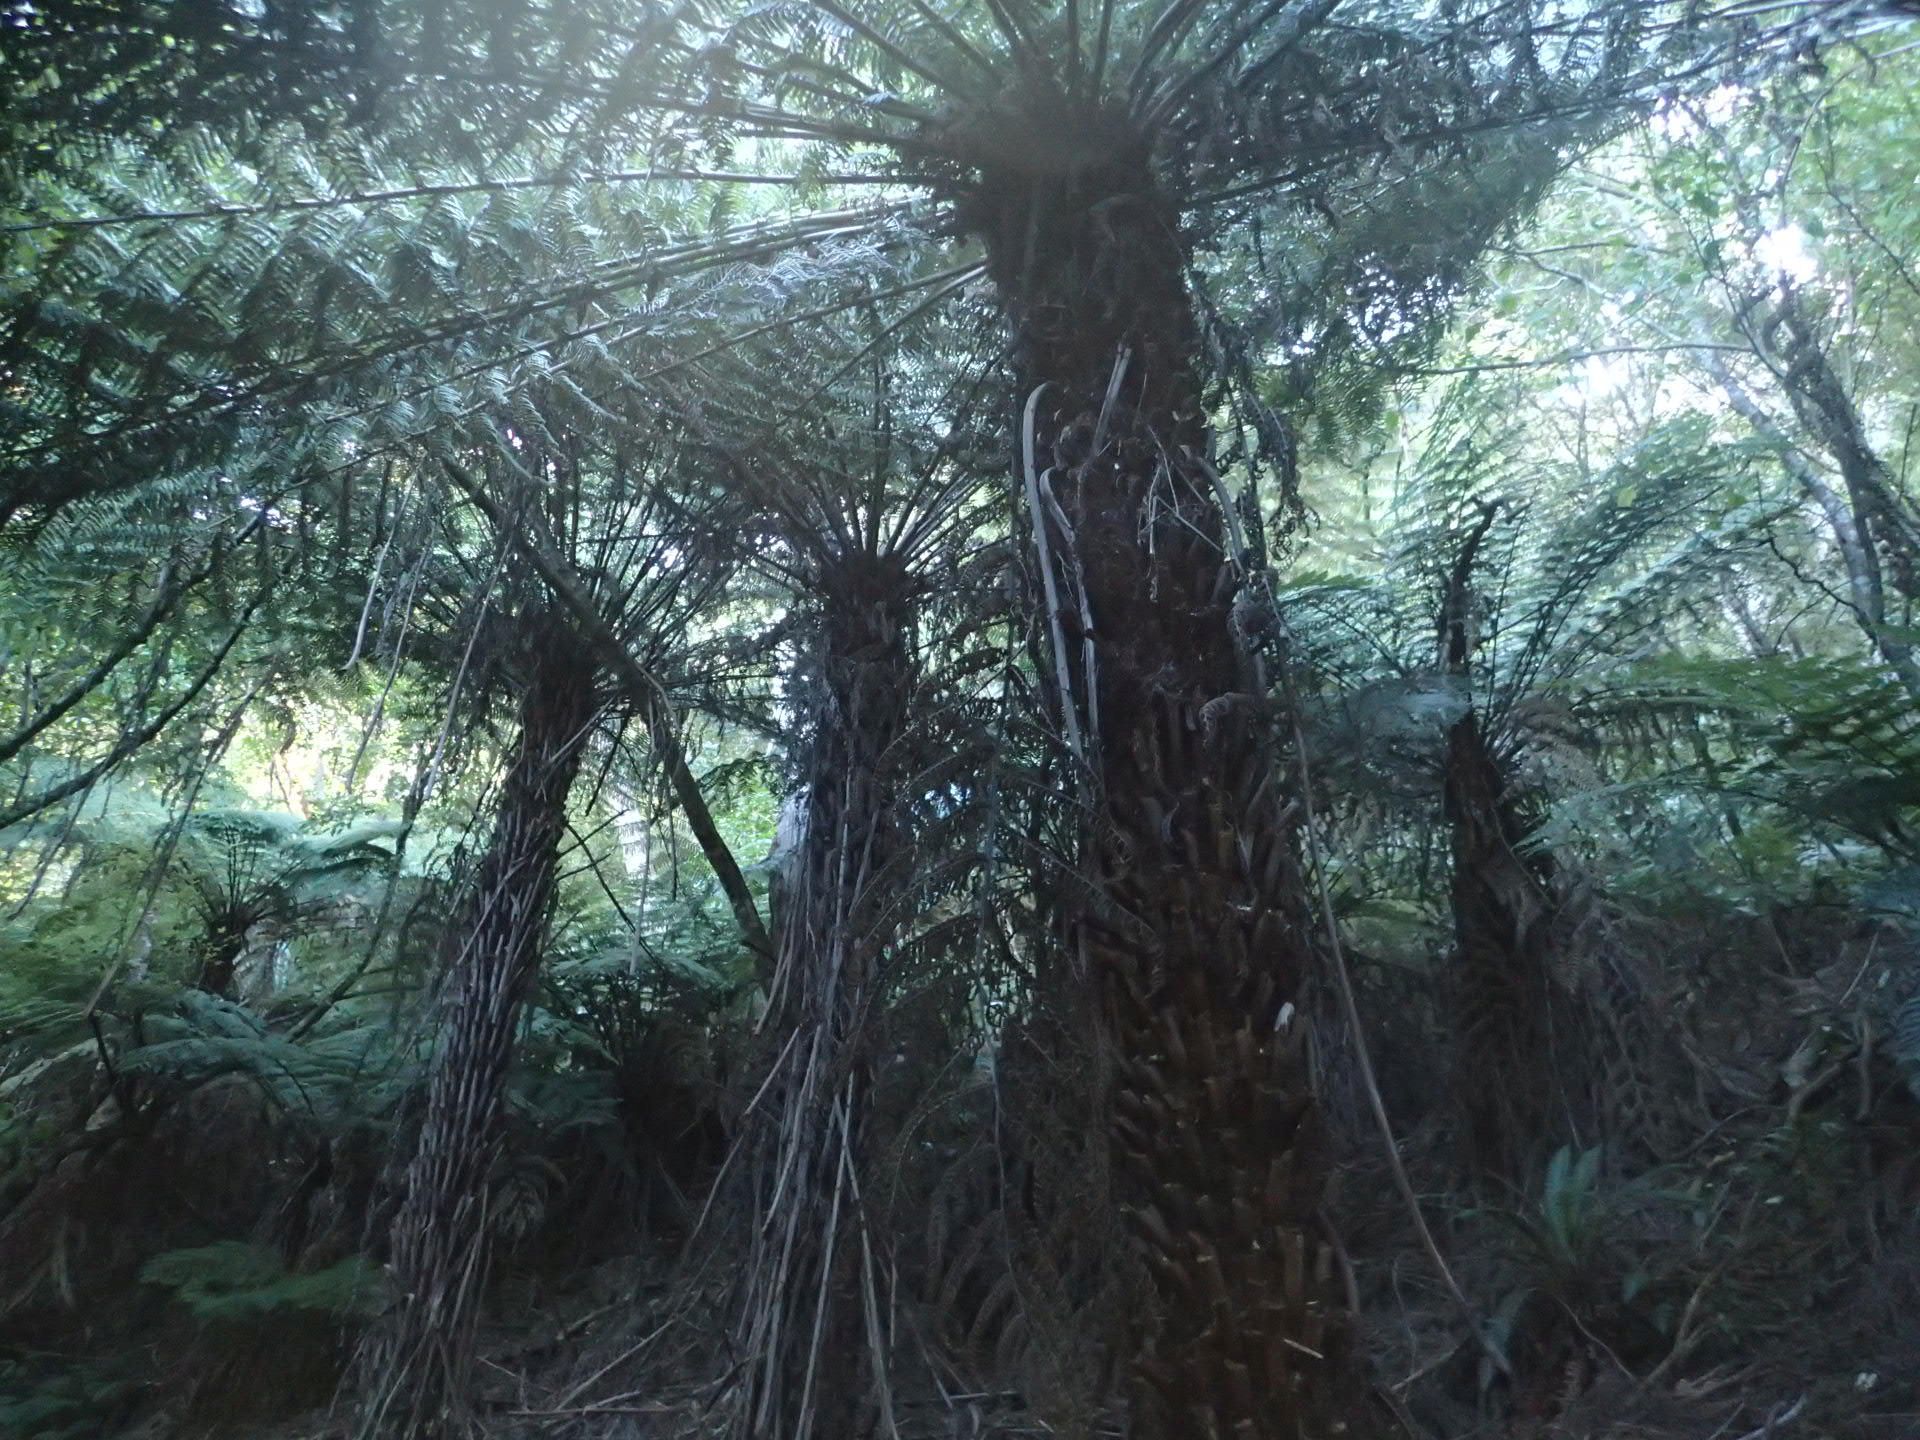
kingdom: Plantae
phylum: Tracheophyta
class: Polypodiopsida
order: Cyatheales
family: Cyatheaceae
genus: Alsophila
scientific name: Alsophila dealbata
